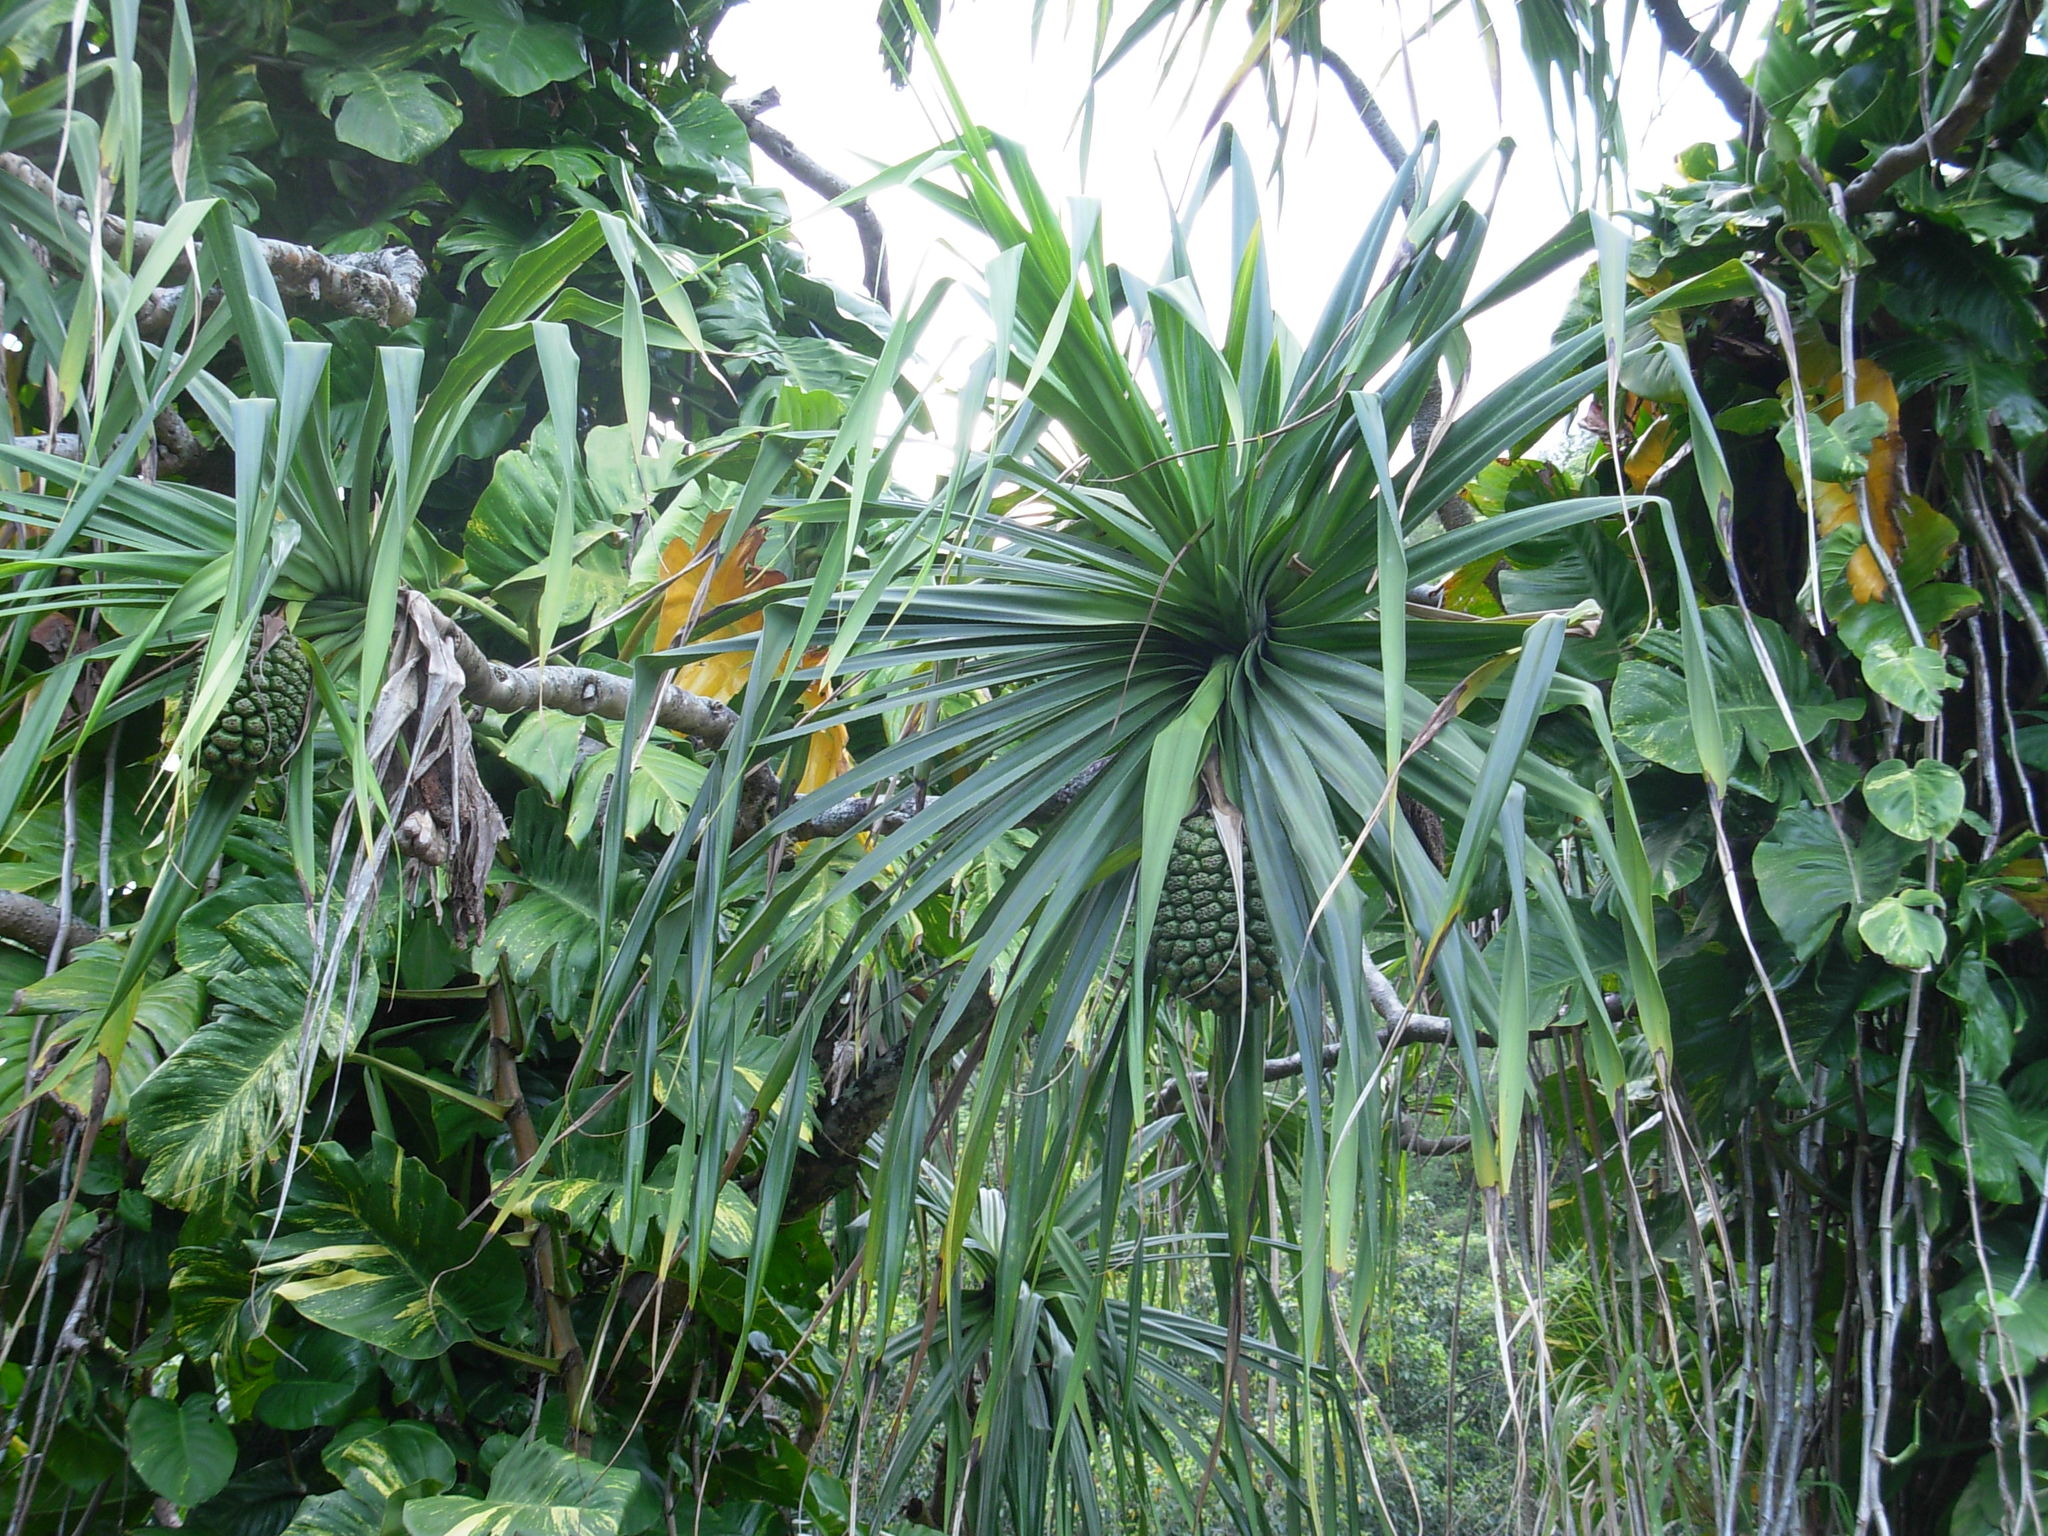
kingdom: Plantae
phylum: Tracheophyta
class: Liliopsida
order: Pandanales
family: Pandanaceae
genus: Pandanus
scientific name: Pandanus tectorius
